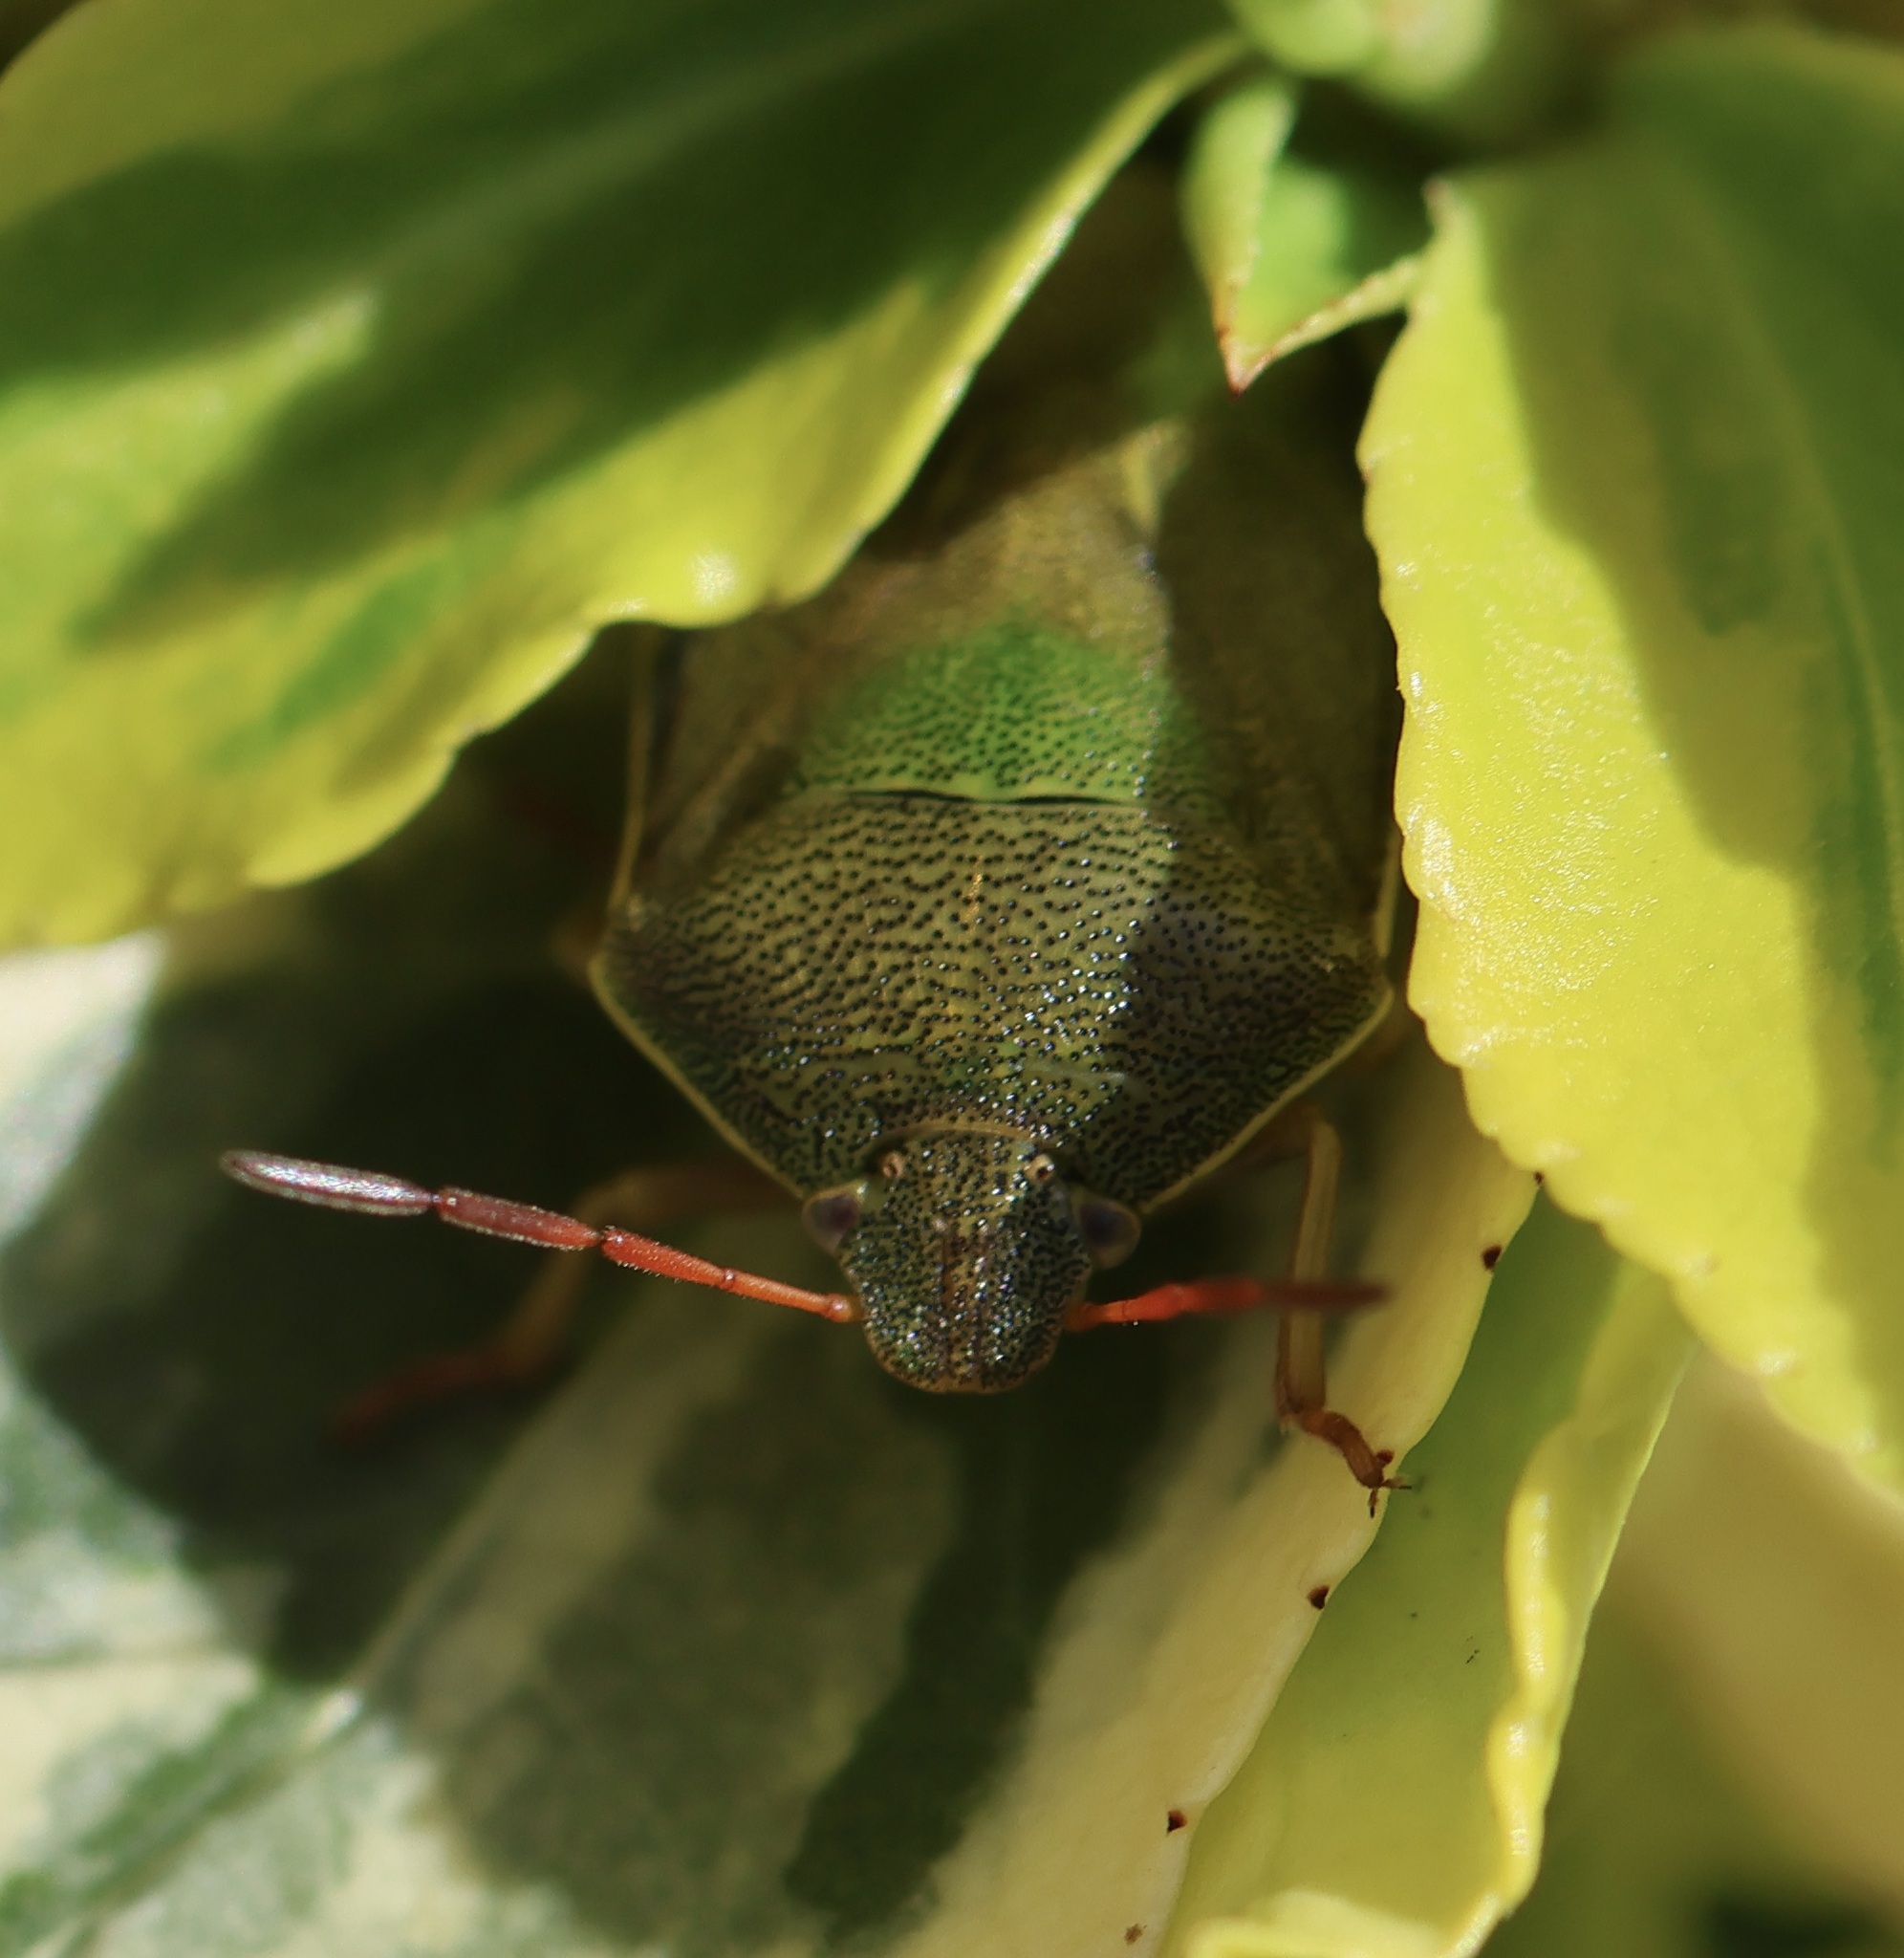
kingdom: Animalia
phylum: Arthropoda
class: Insecta
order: Hemiptera
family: Pentatomidae
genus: Piezodorus
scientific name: Piezodorus lituratus
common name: Stink bug
